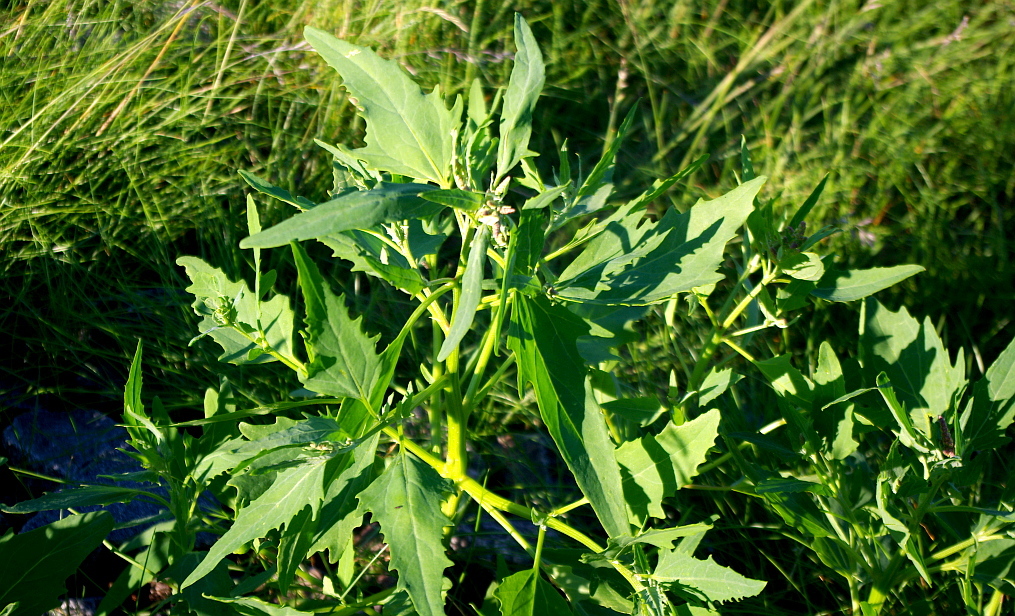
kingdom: Plantae
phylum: Tracheophyta
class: Magnoliopsida
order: Caryophyllales
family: Amaranthaceae
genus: Atriplex
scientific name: Atriplex nudicaulis
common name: Baltic orache
